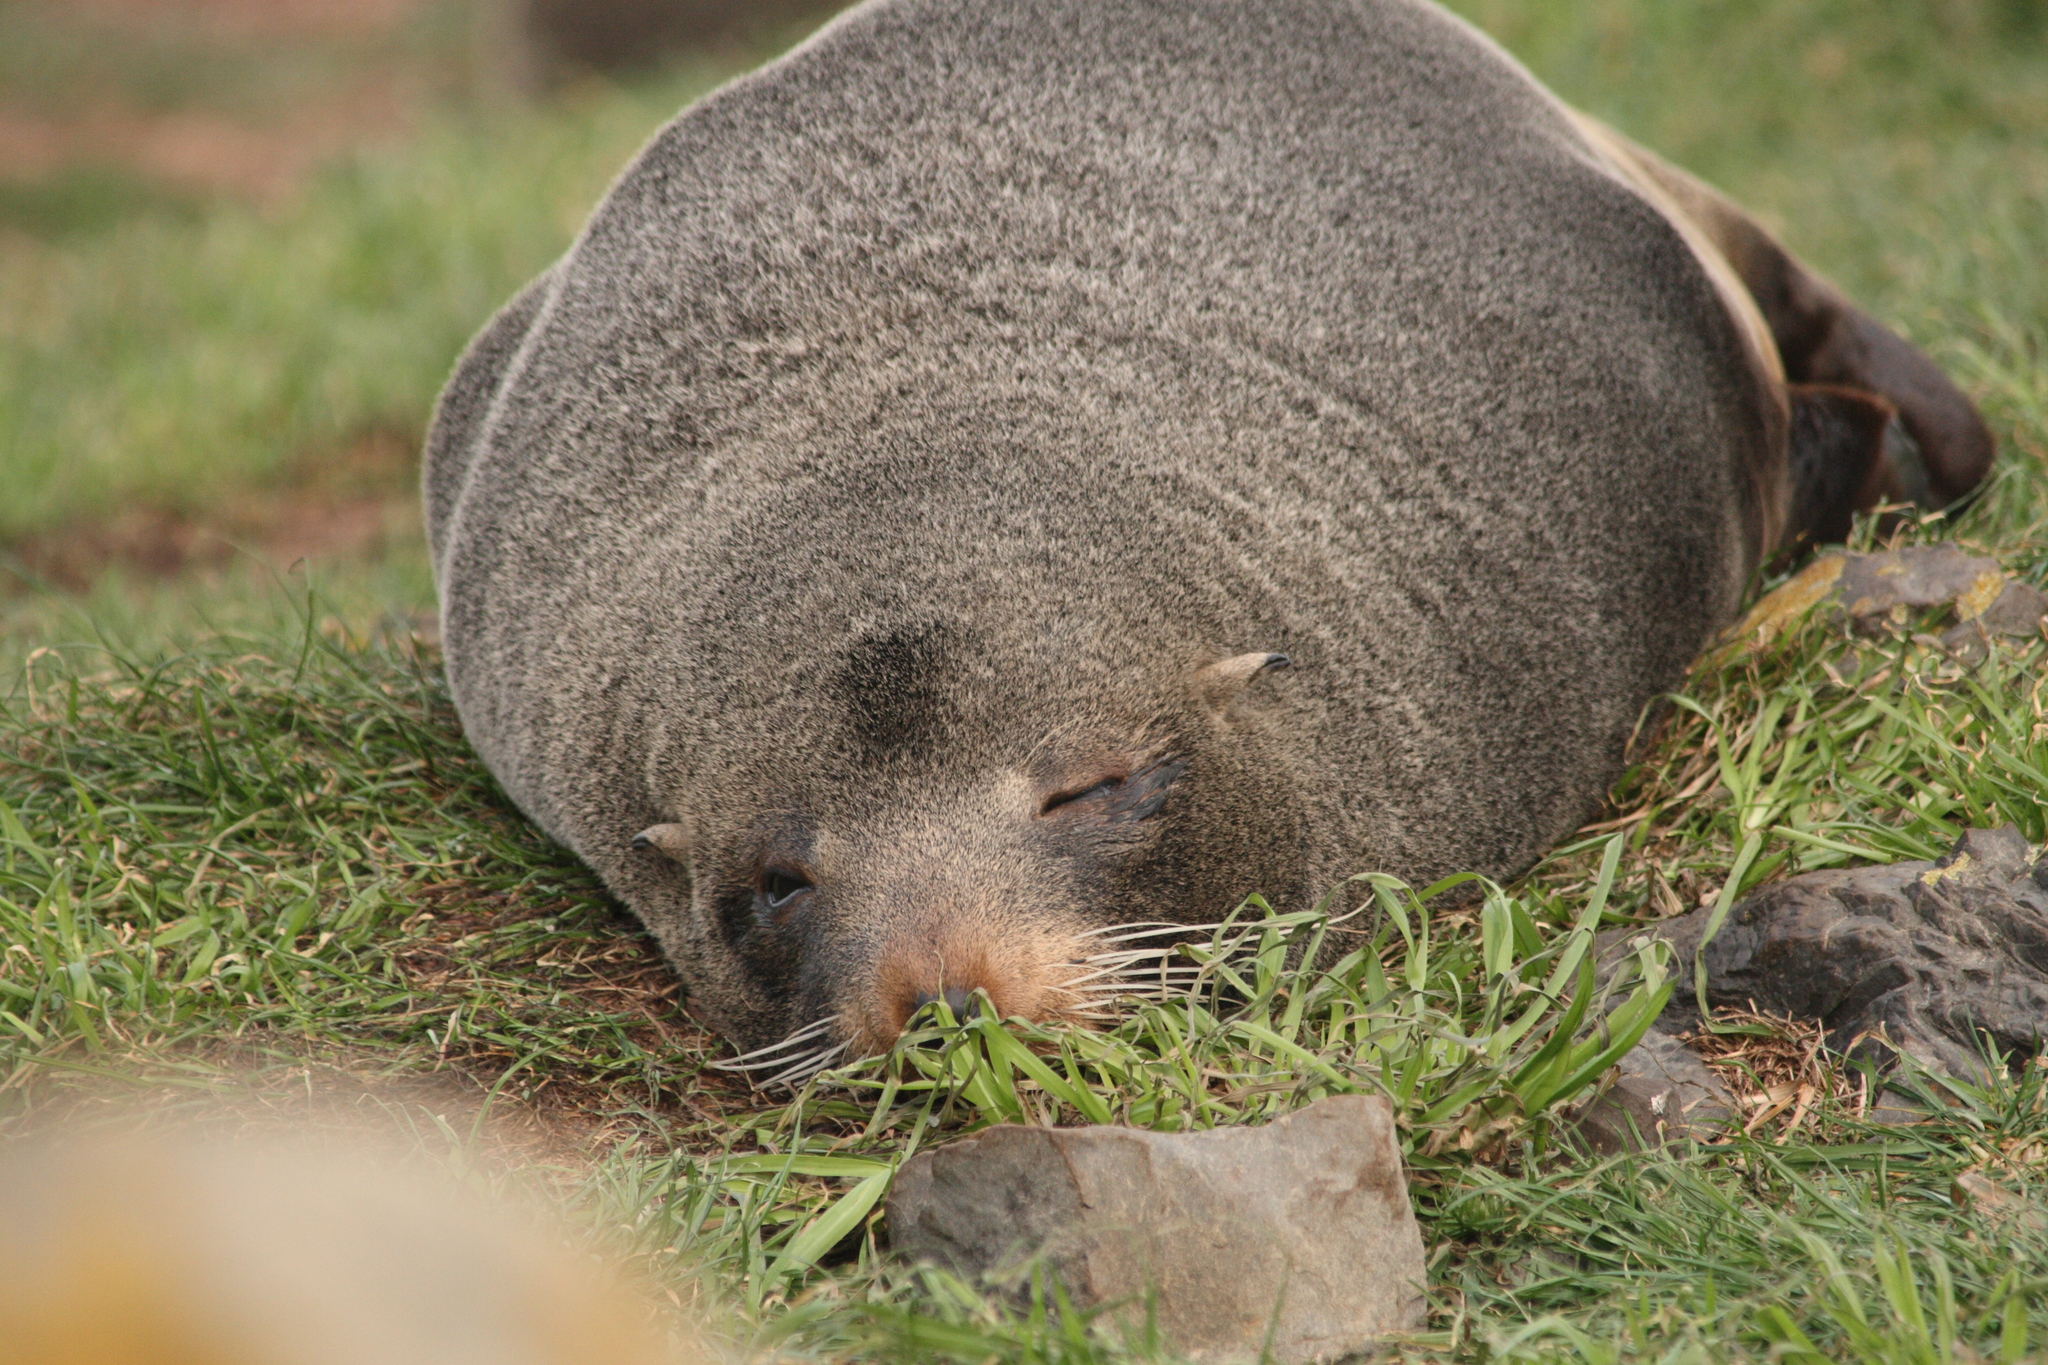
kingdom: Animalia
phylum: Chordata
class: Mammalia
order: Carnivora
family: Otariidae
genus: Arctocephalus
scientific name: Arctocephalus forsteri
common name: New zealand fur seal
